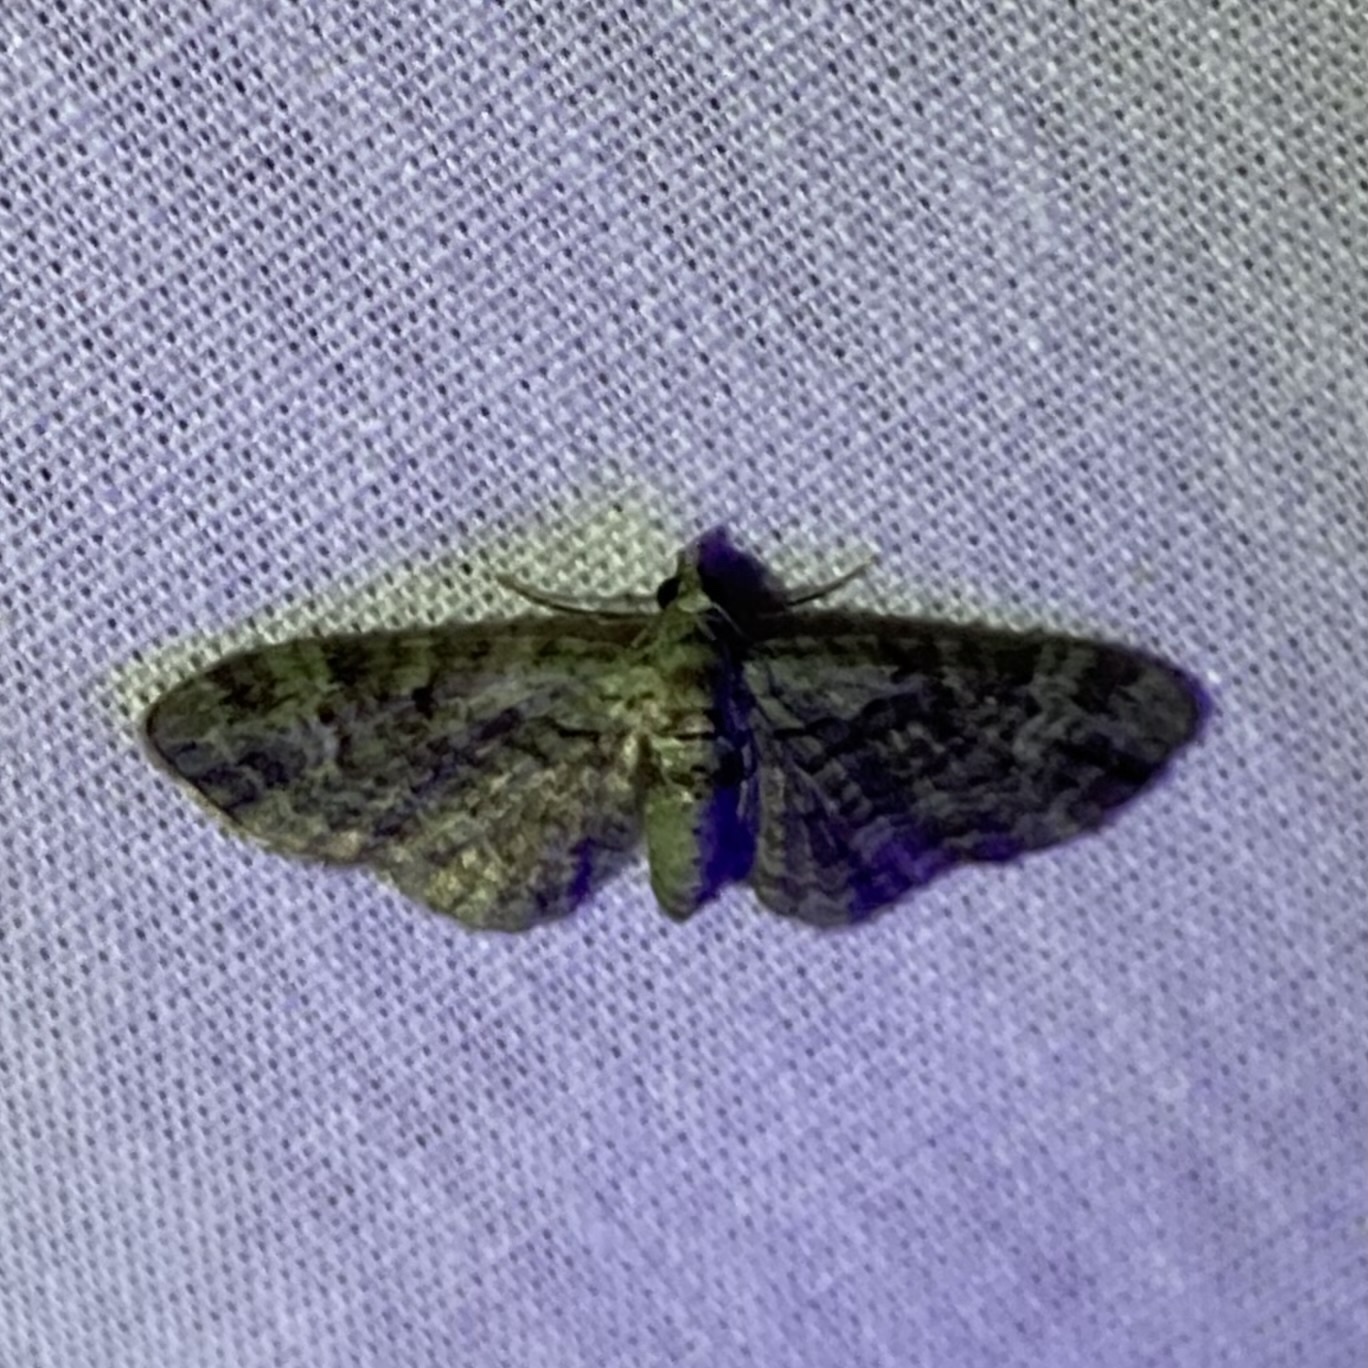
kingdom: Animalia
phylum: Arthropoda
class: Insecta
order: Lepidoptera
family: Geometridae
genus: Pasiphila
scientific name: Pasiphila rectangulata
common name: Green pug
